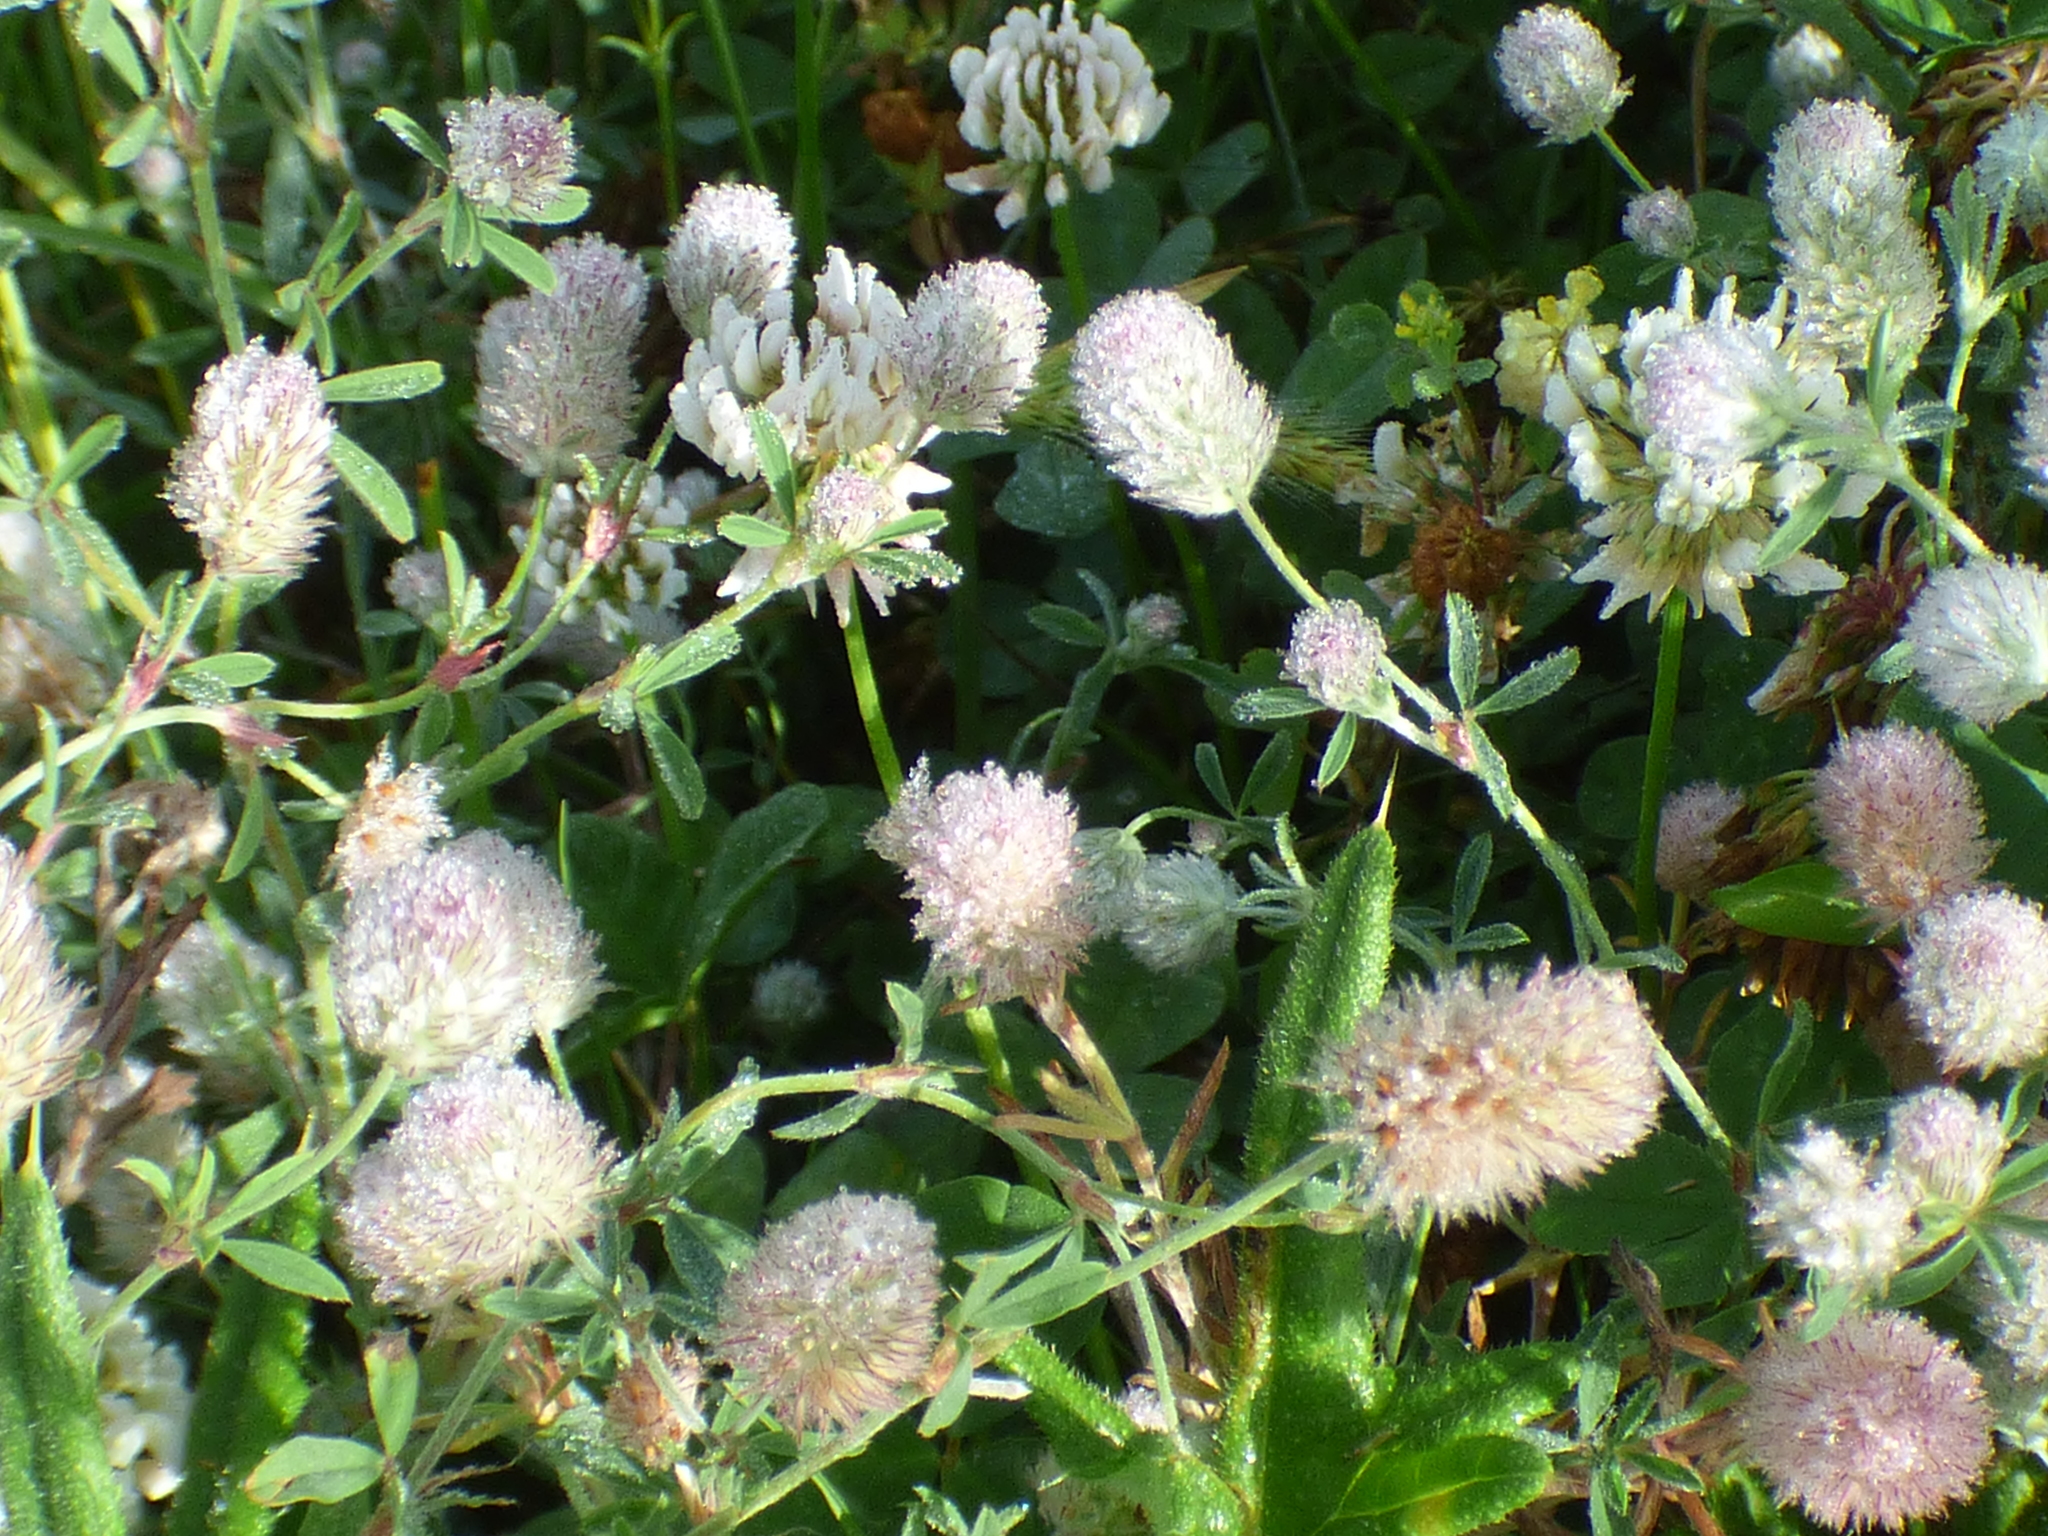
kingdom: Plantae
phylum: Tracheophyta
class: Magnoliopsida
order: Fabales
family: Fabaceae
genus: Trifolium
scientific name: Trifolium arvense
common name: Hare's-foot clover
